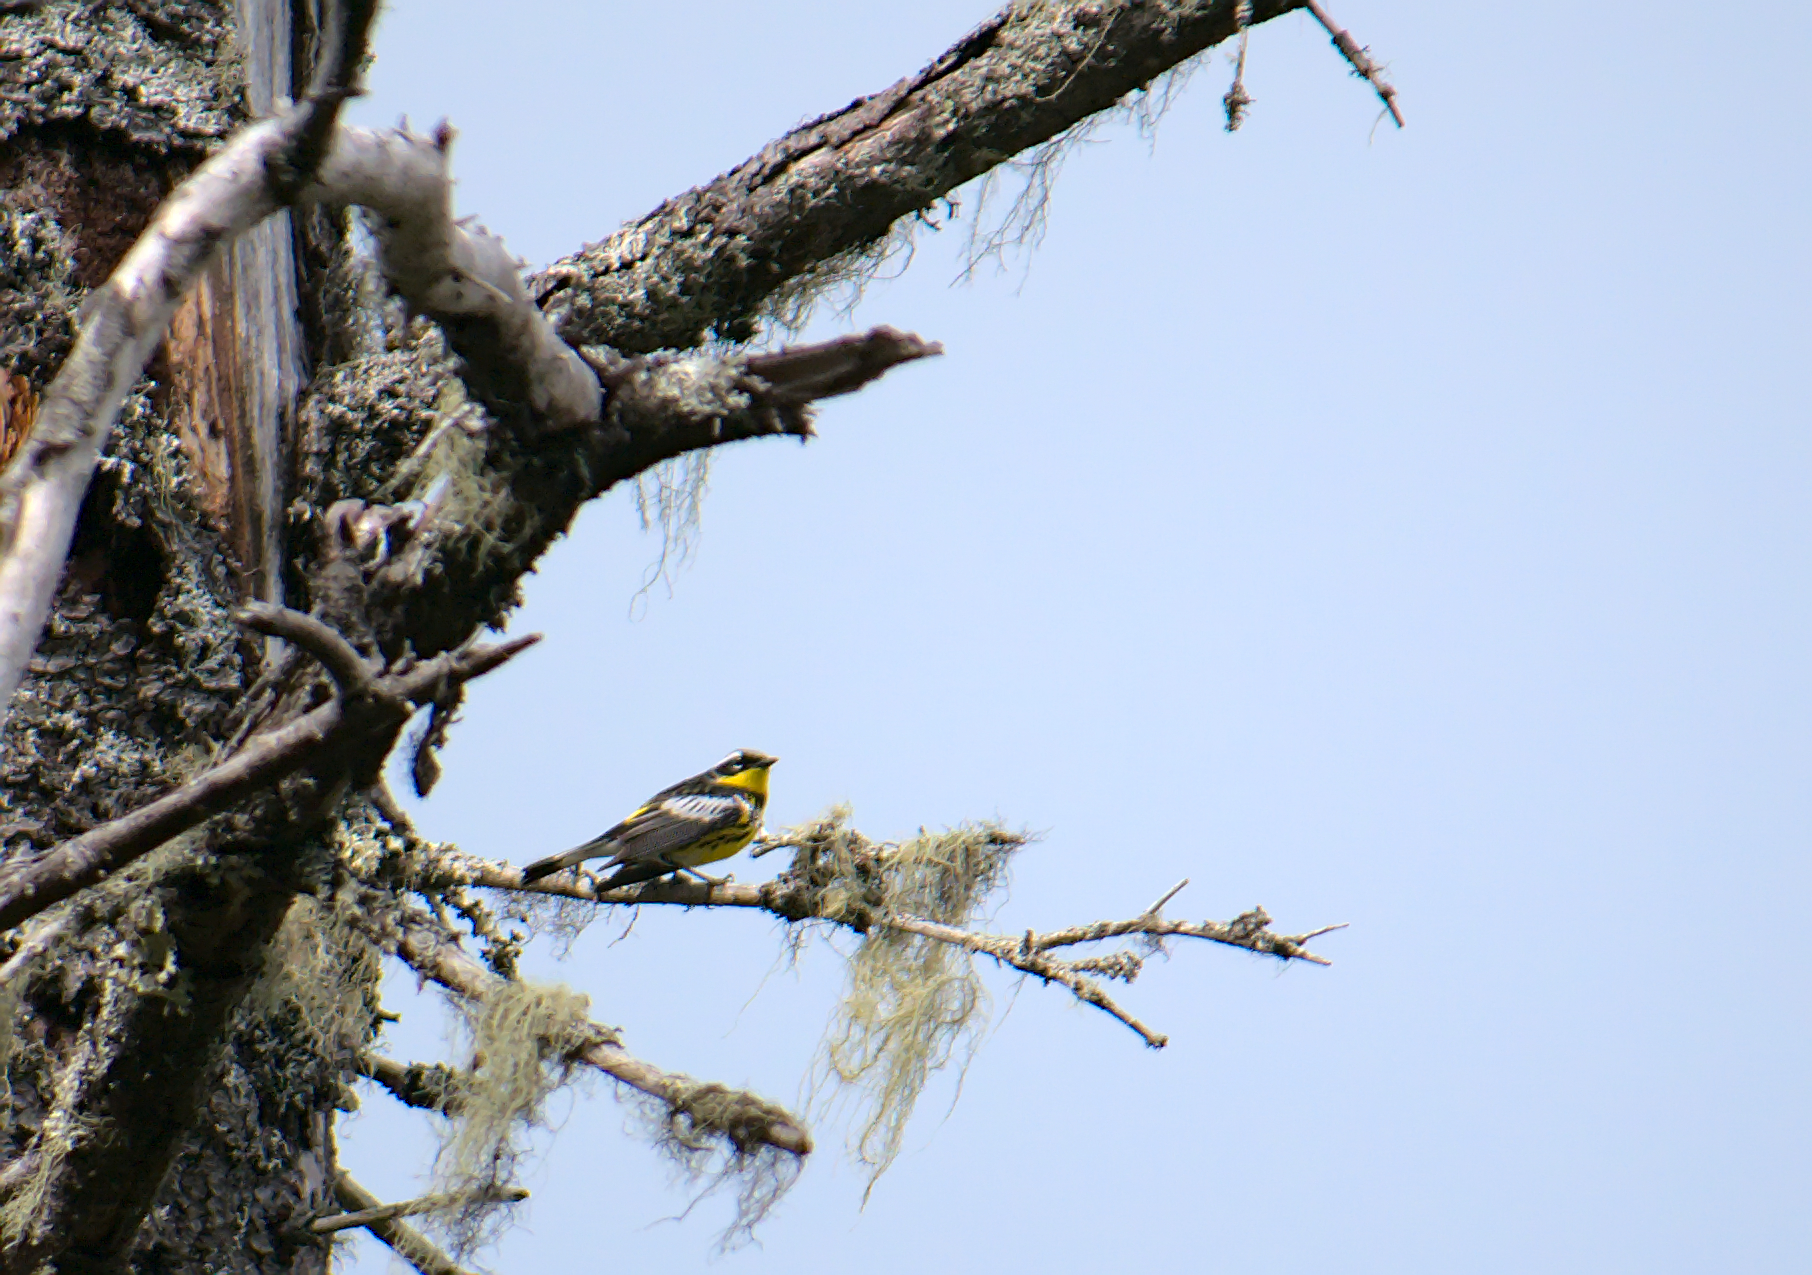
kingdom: Animalia
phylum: Chordata
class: Aves
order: Passeriformes
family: Parulidae
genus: Setophaga
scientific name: Setophaga magnolia
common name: Magnolia warbler
